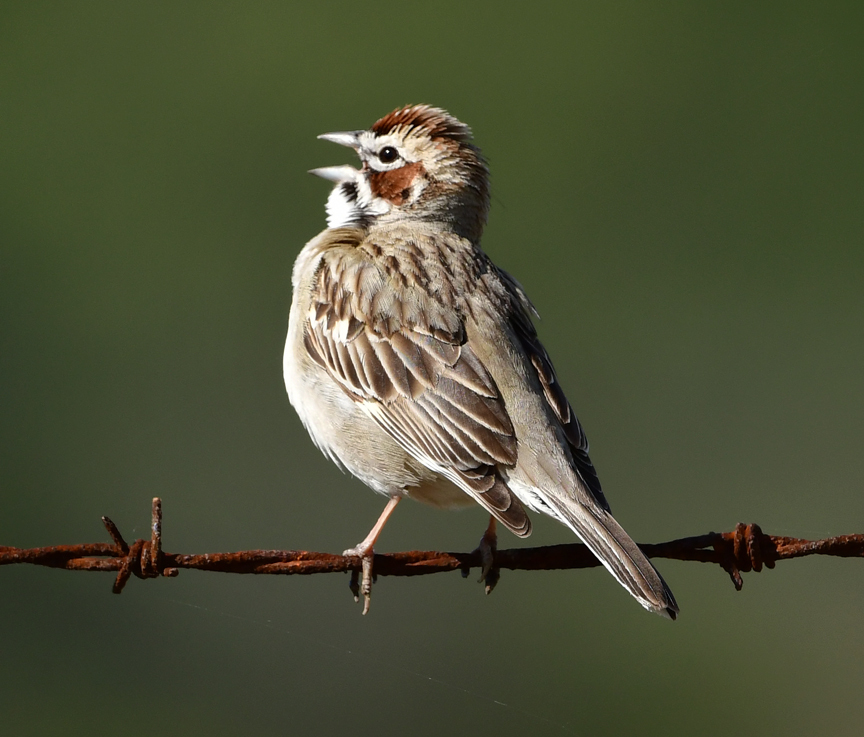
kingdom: Animalia
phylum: Chordata
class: Aves
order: Passeriformes
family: Passerellidae
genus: Chondestes
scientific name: Chondestes grammacus
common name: Lark sparrow
